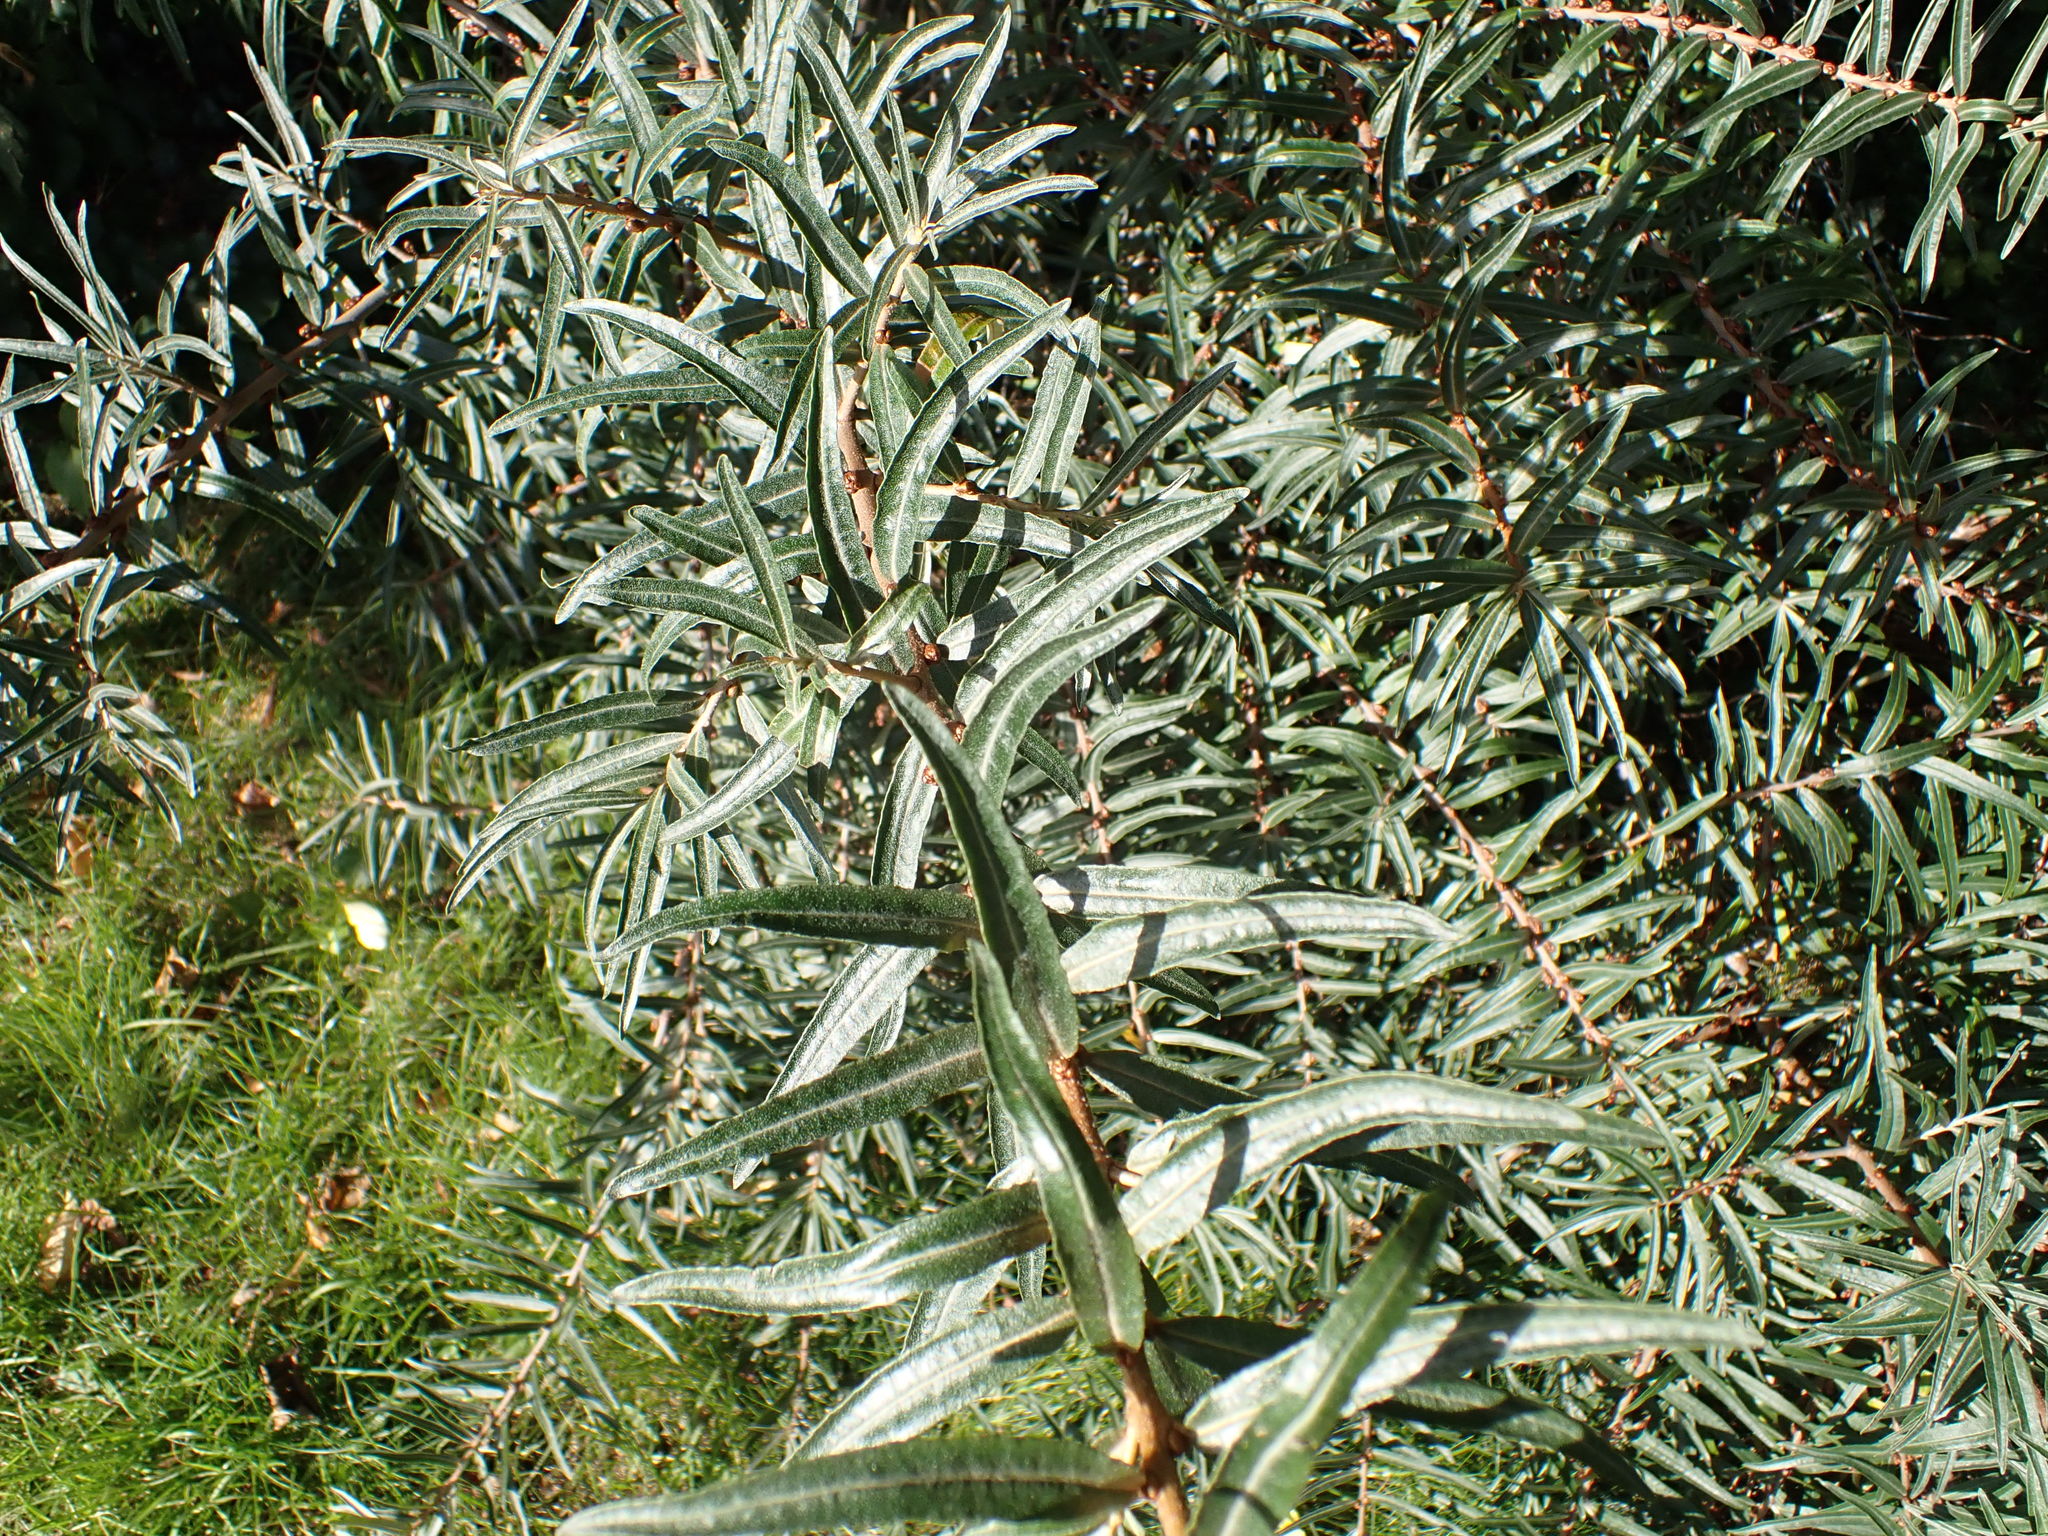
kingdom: Plantae
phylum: Tracheophyta
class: Magnoliopsida
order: Rosales
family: Elaeagnaceae
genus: Hippophae
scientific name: Hippophae rhamnoides
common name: Sea-buckthorn
